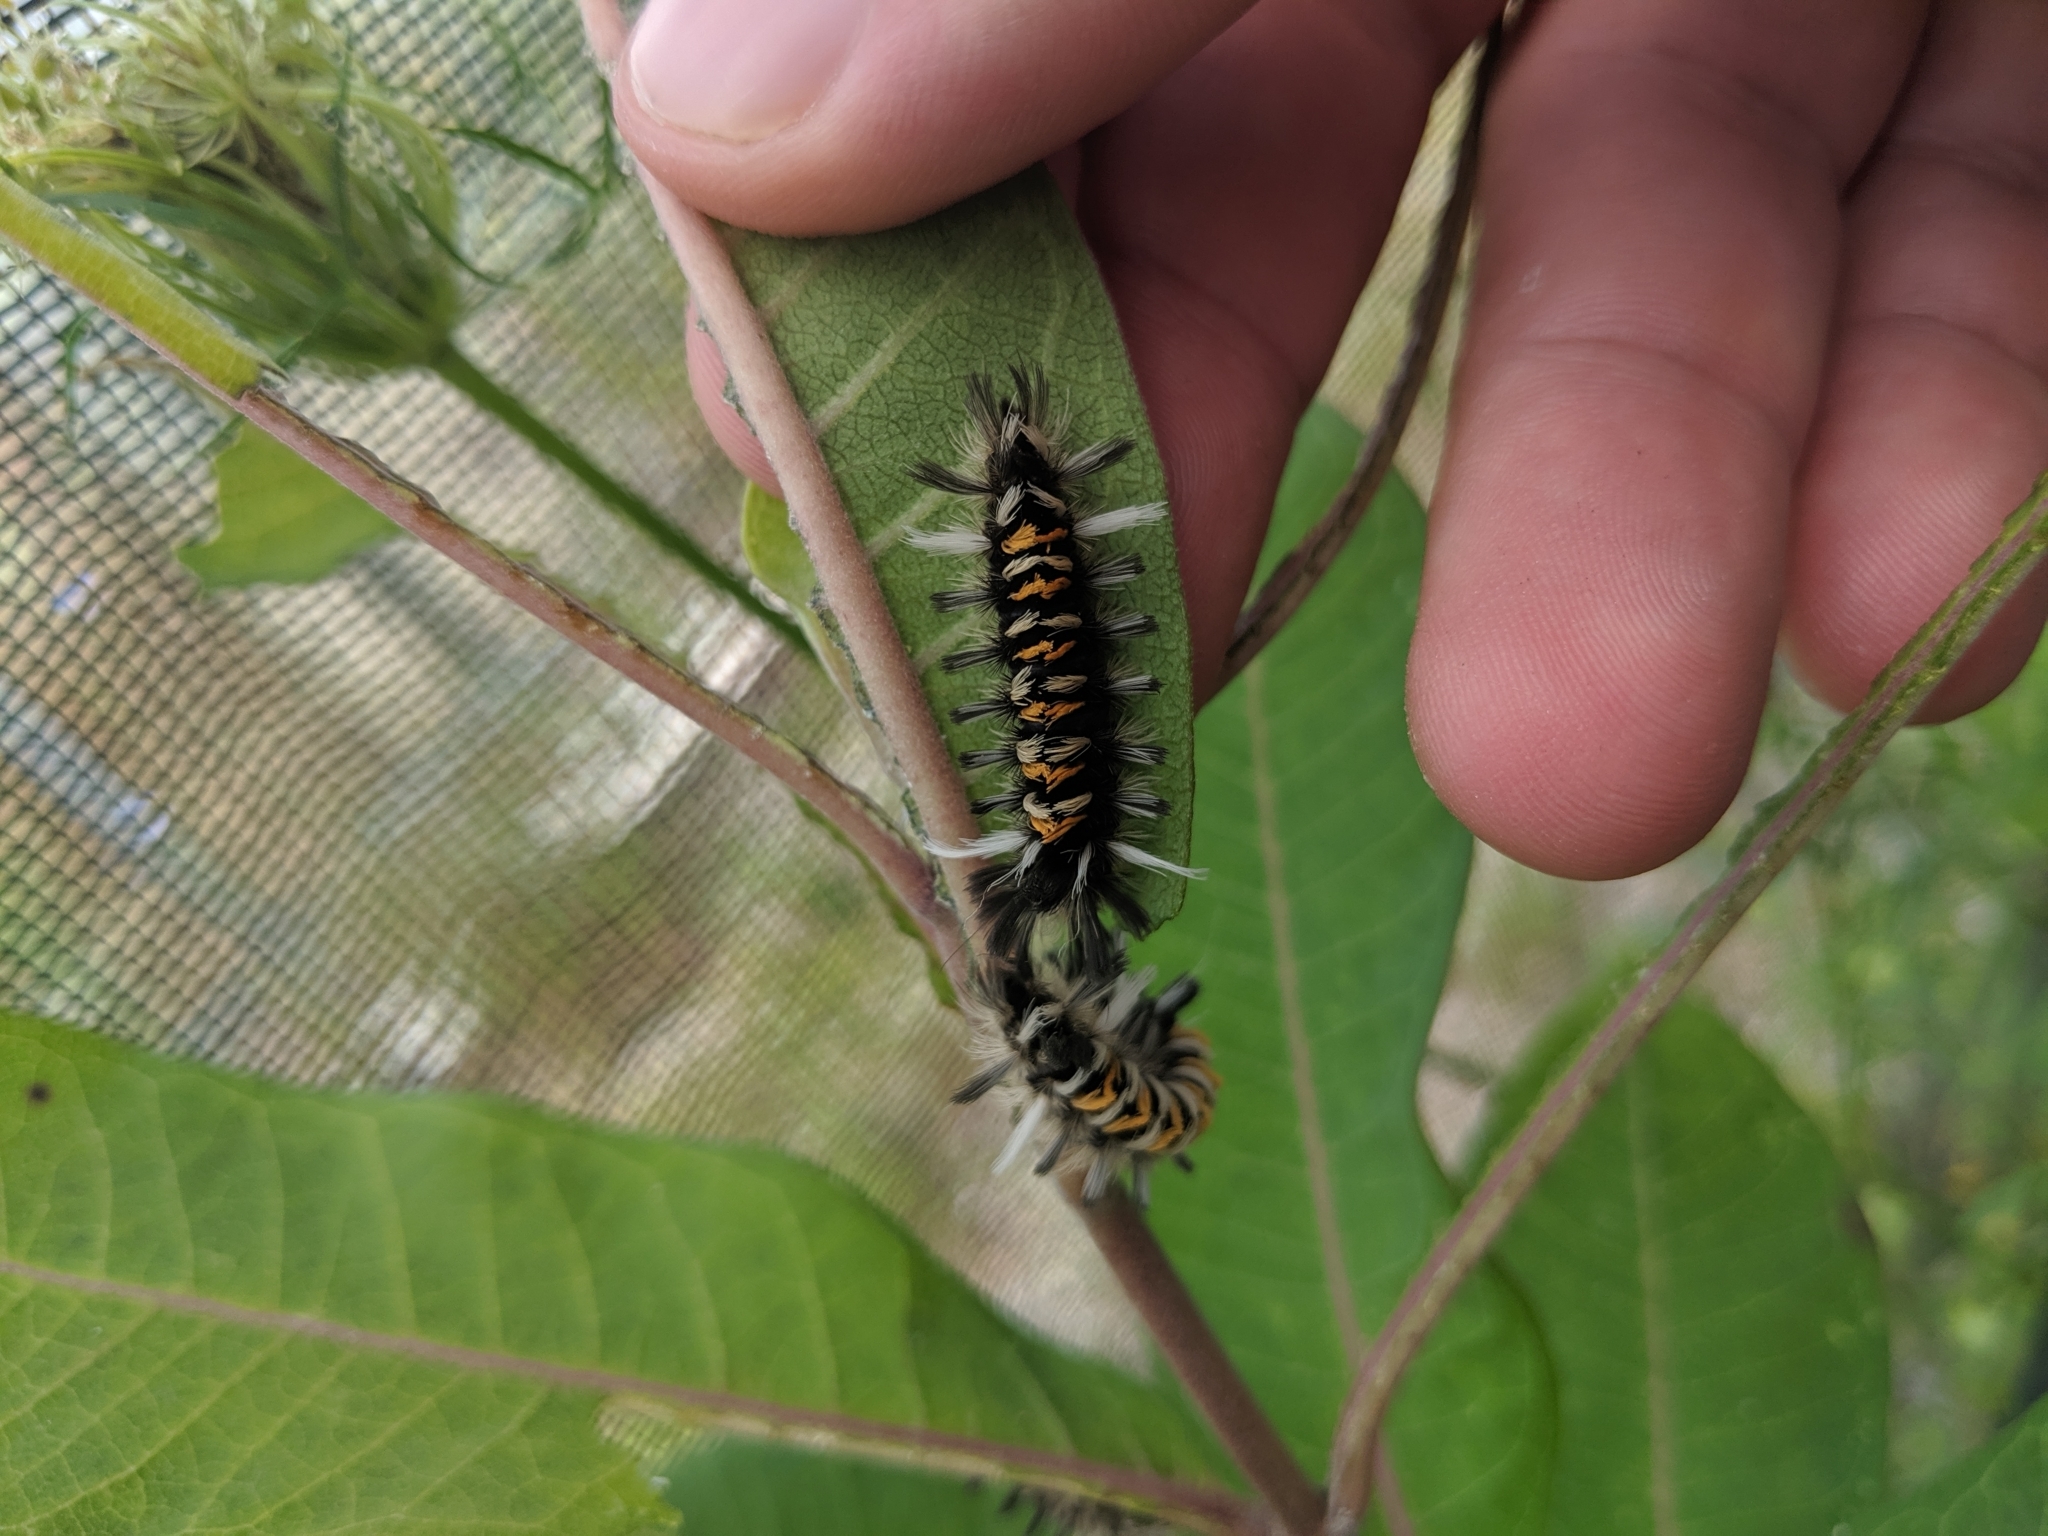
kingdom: Animalia
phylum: Arthropoda
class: Insecta
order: Lepidoptera
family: Erebidae
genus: Euchaetes
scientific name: Euchaetes egle
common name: Milkweed tussock moth
